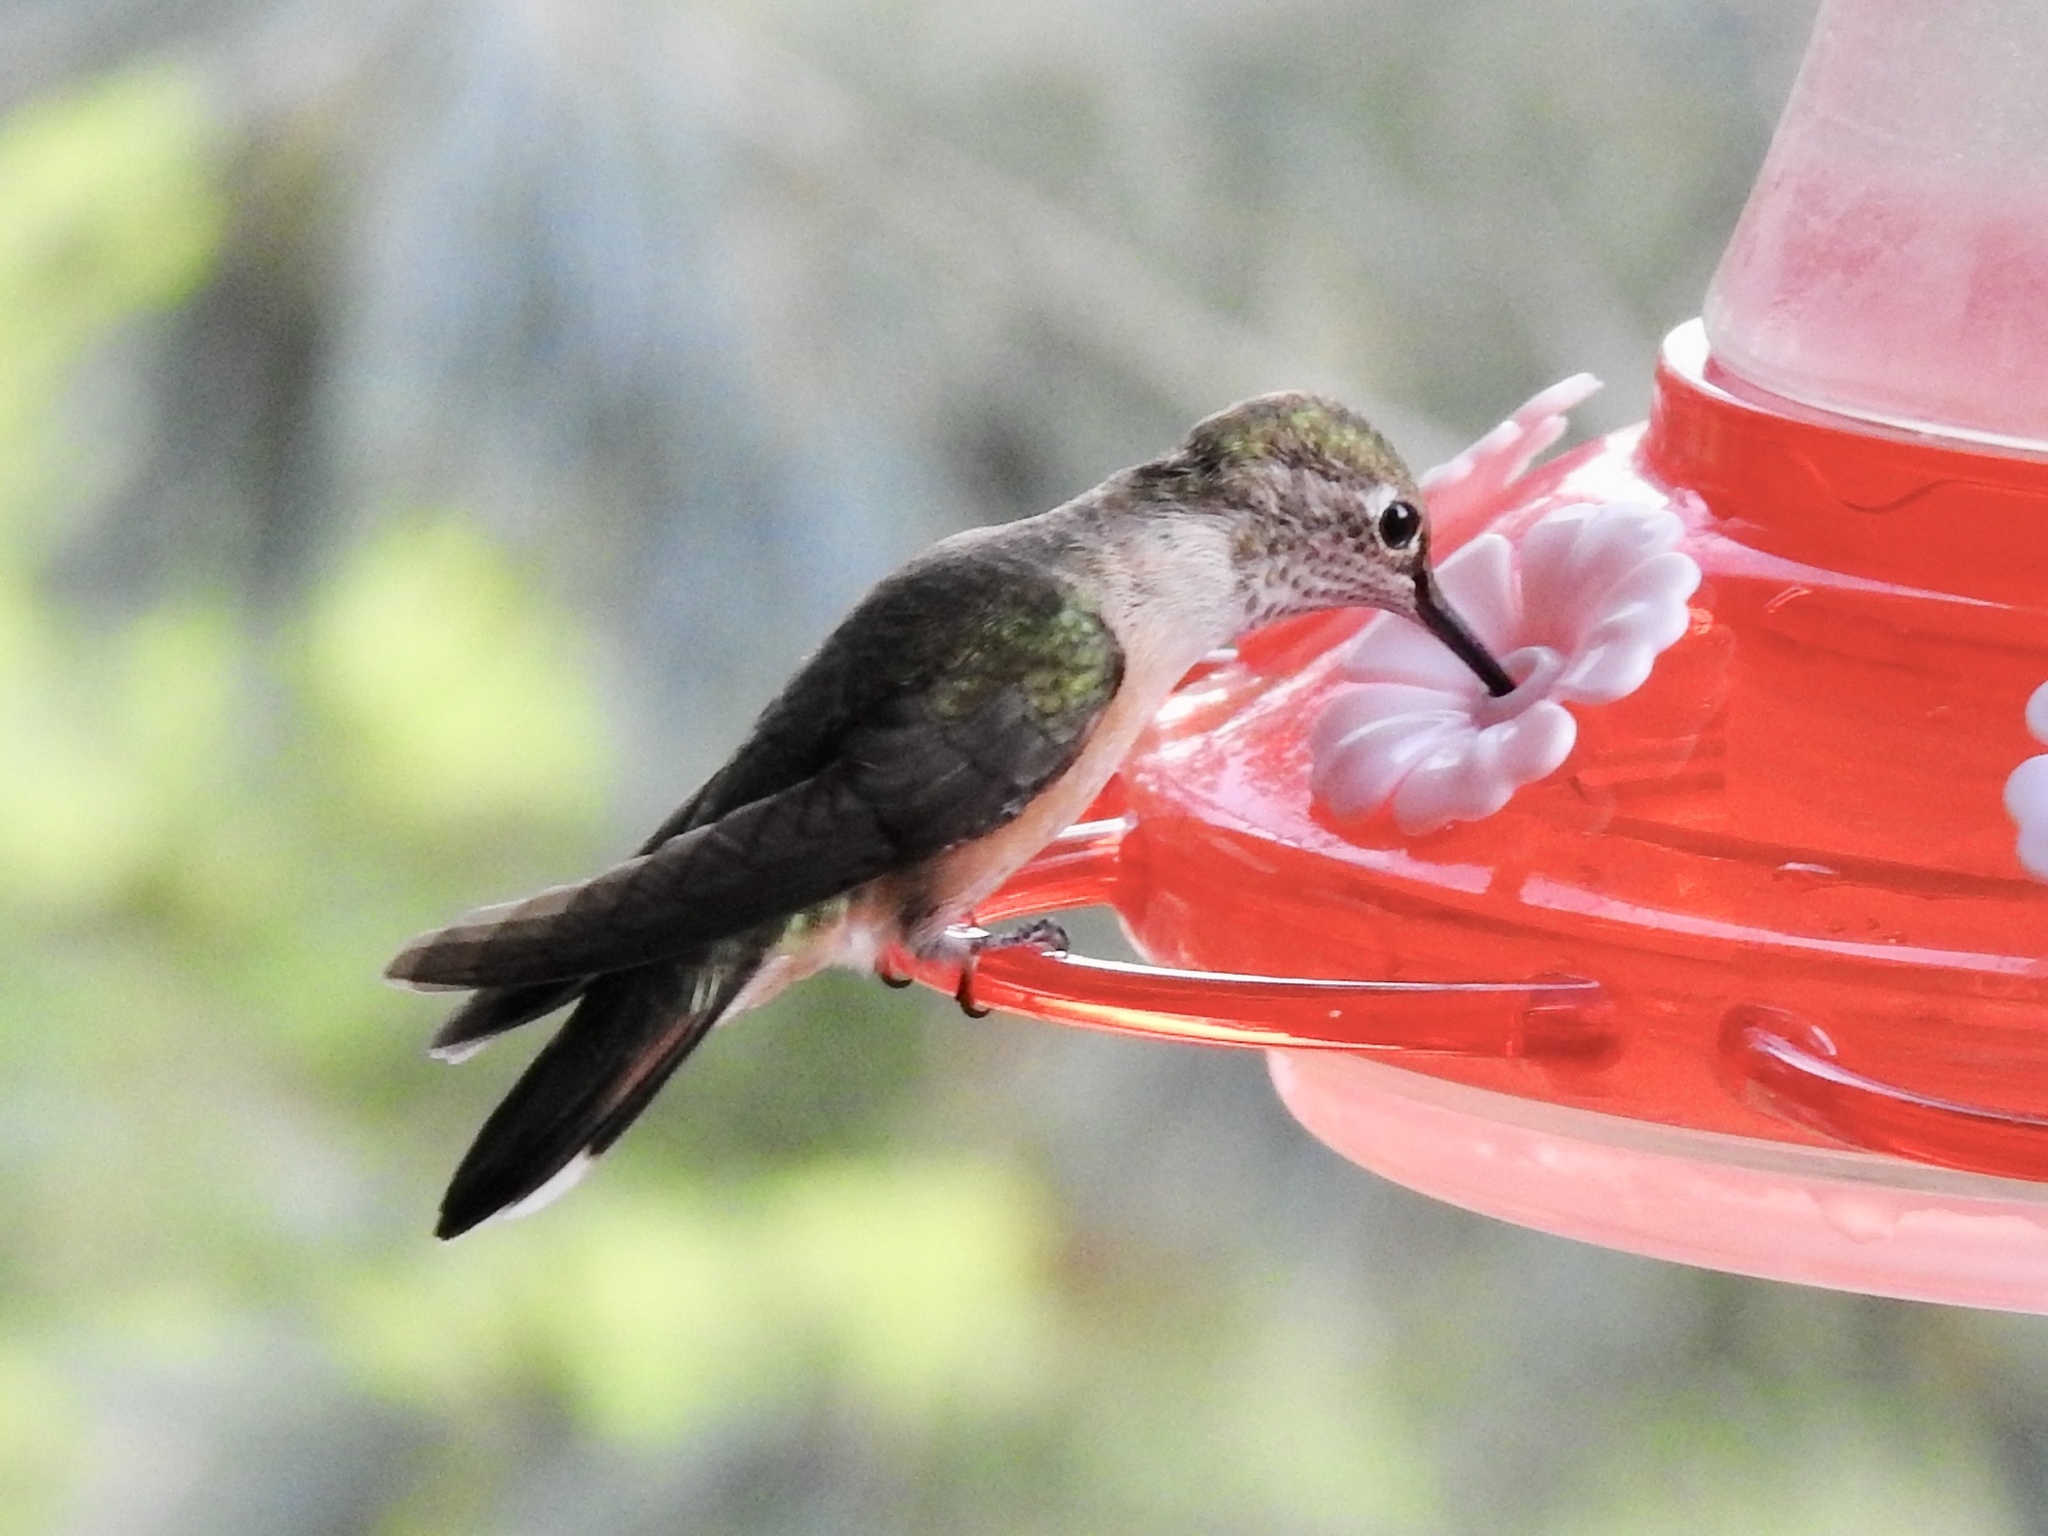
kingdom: Animalia
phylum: Chordata
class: Aves
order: Apodiformes
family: Trochilidae
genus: Selasphorus
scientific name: Selasphorus platycercus
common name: Broad-tailed hummingbird
